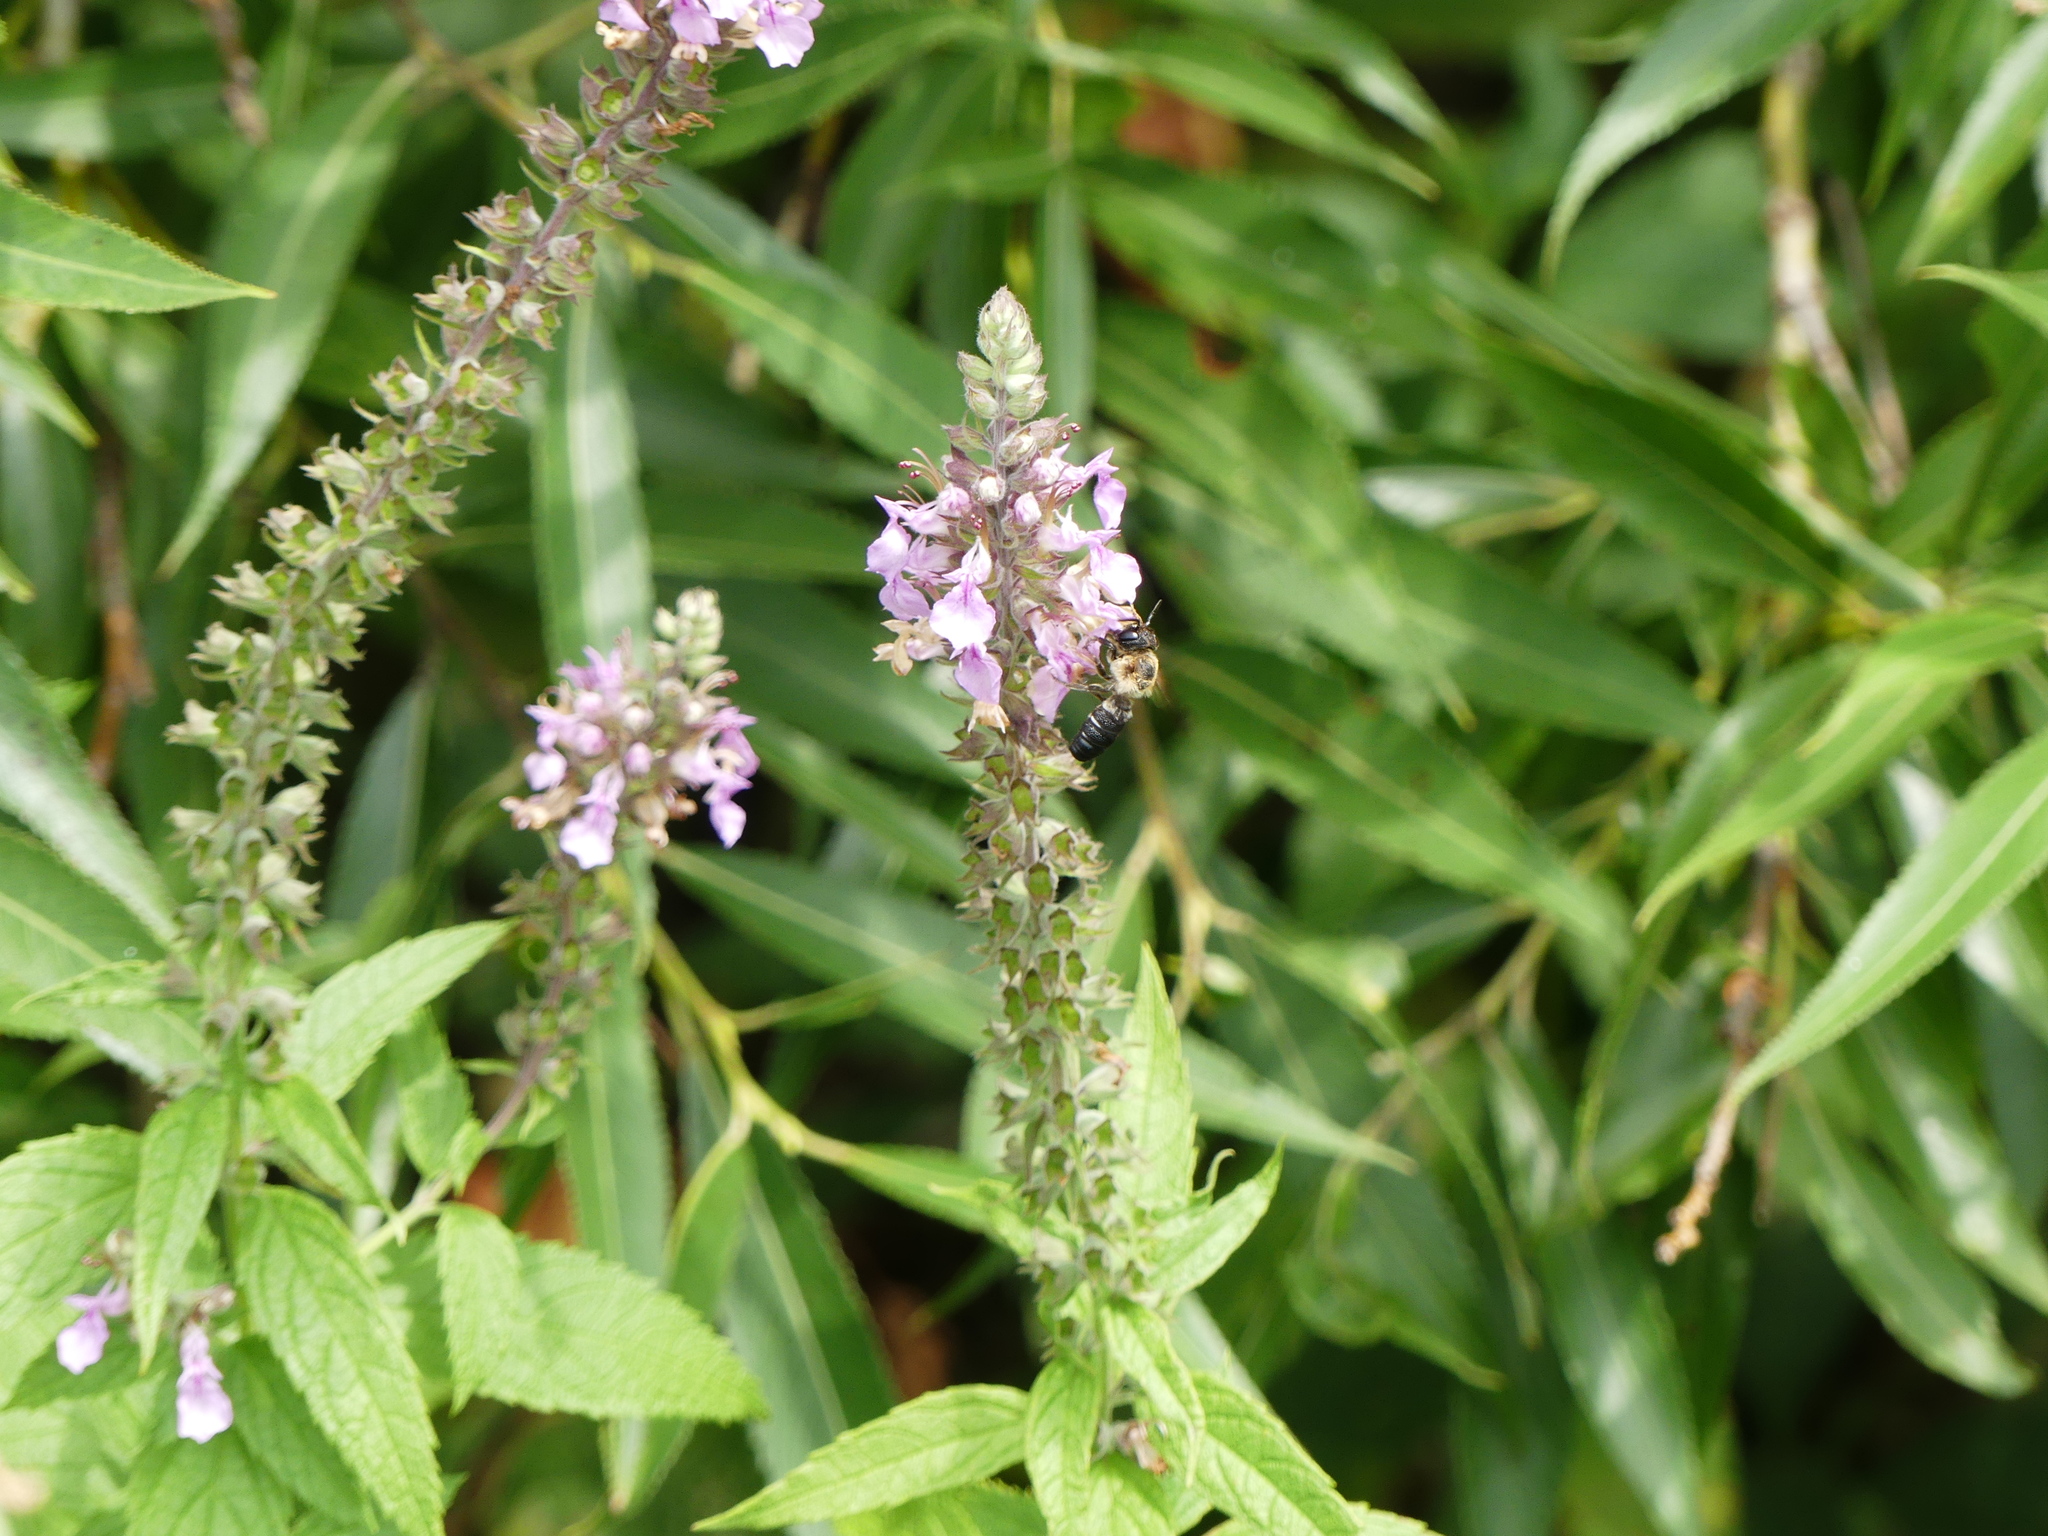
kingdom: Plantae
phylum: Tracheophyta
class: Magnoliopsida
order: Lamiales
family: Lamiaceae
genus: Teucrium
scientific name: Teucrium canadense
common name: American germander
